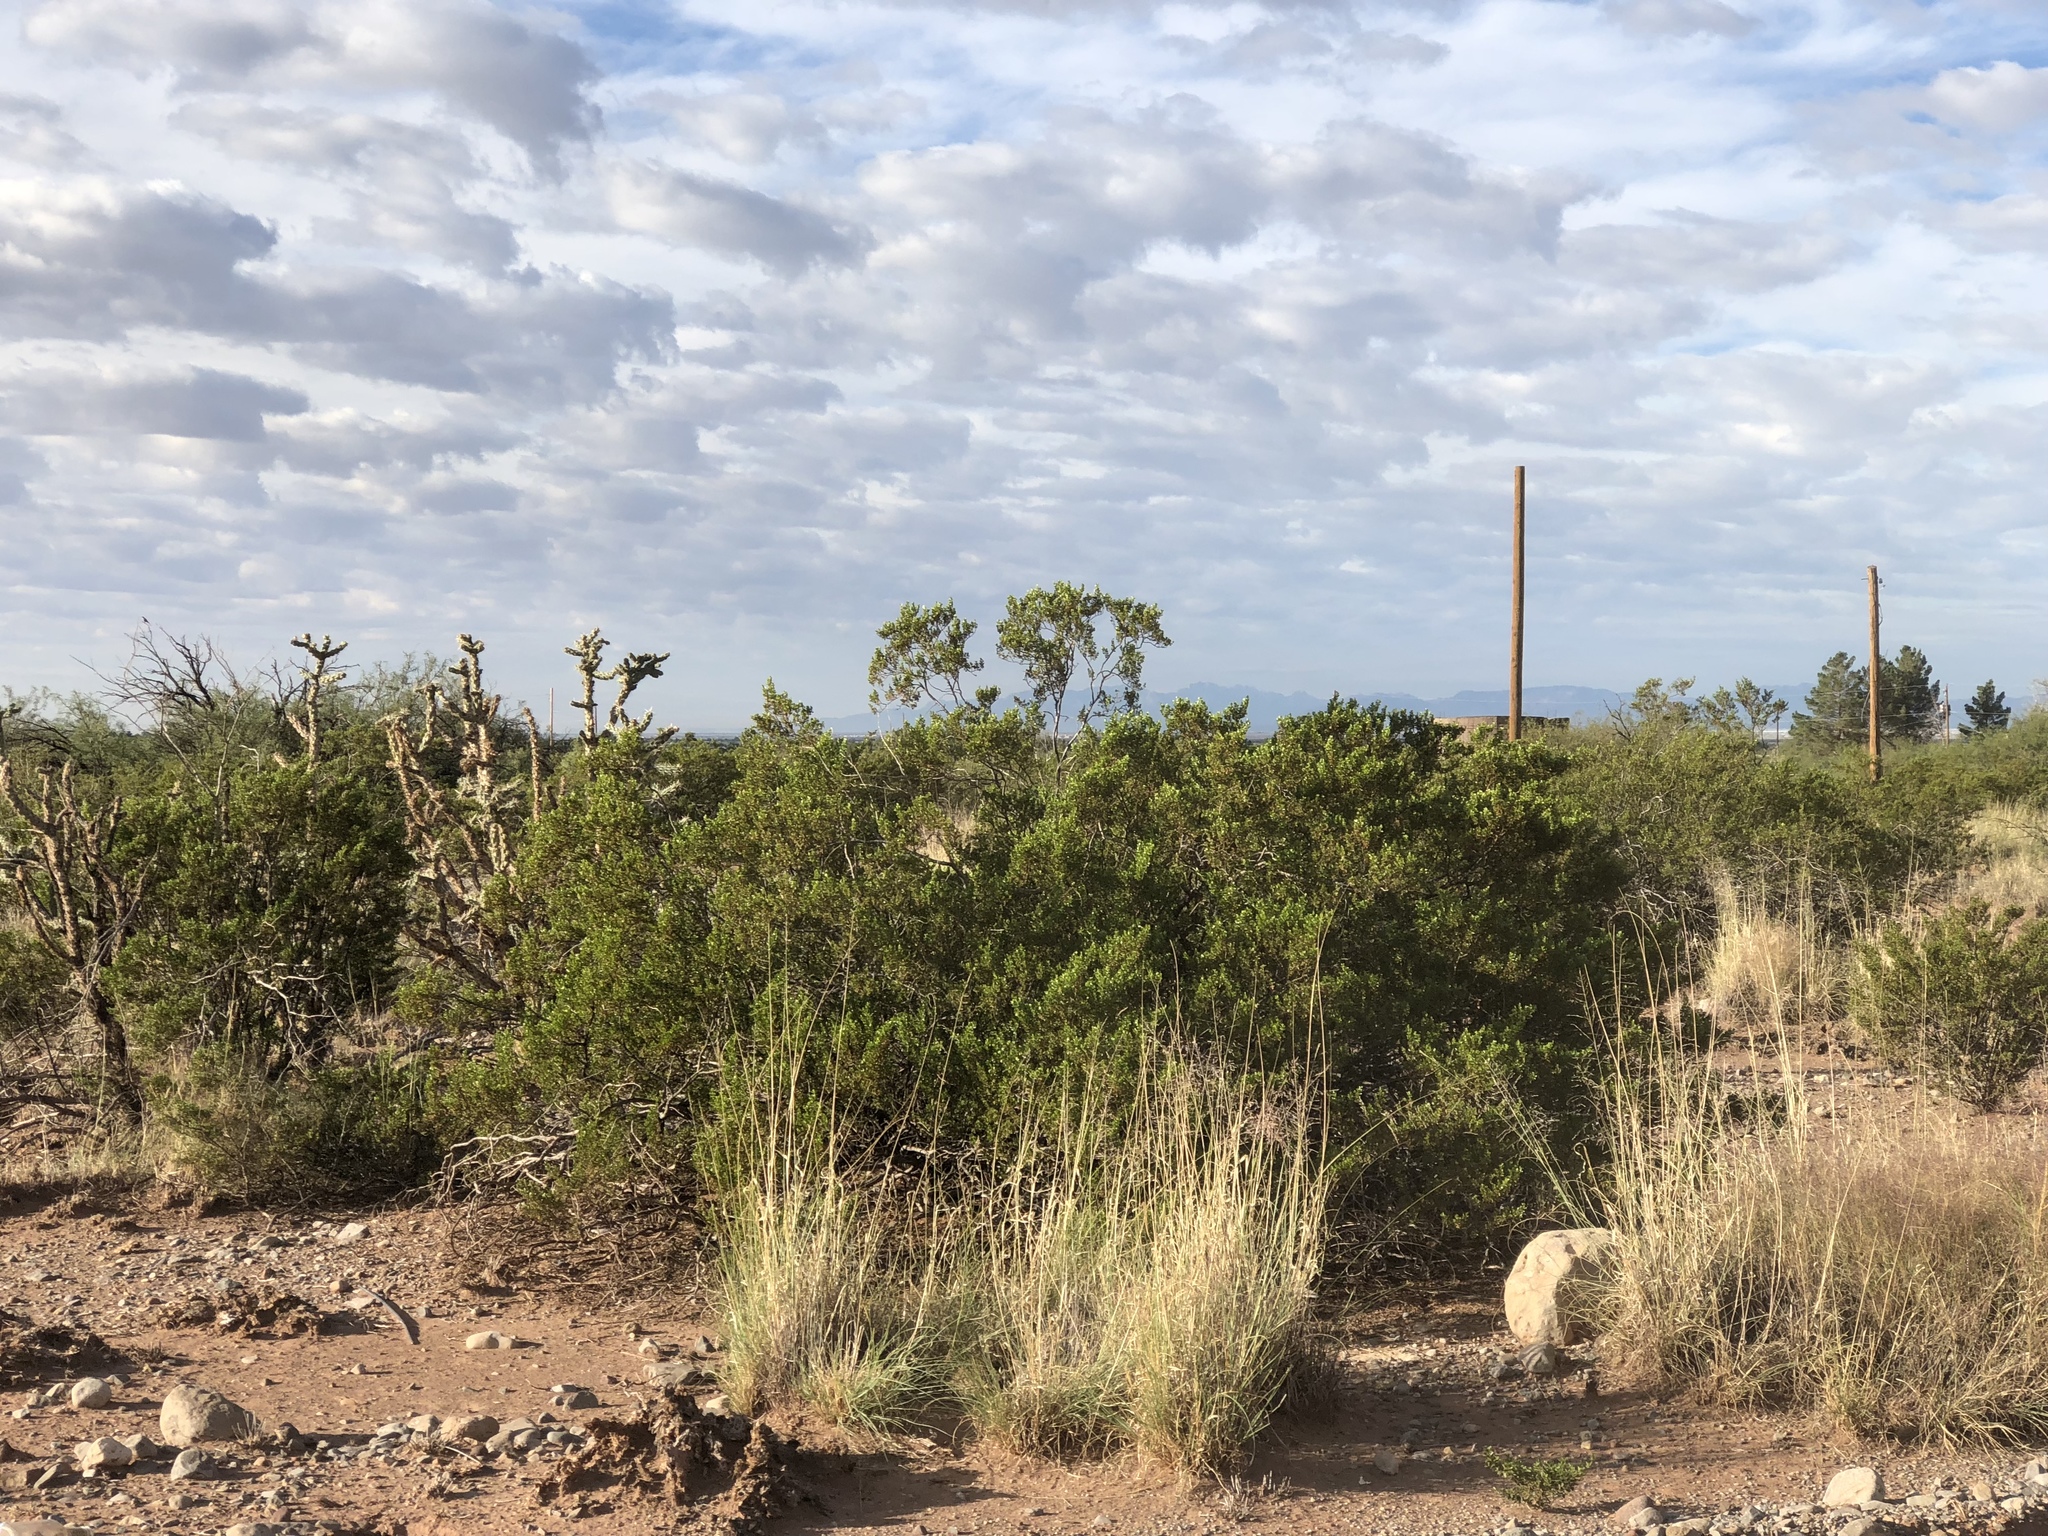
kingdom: Plantae
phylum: Tracheophyta
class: Magnoliopsida
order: Zygophyllales
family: Zygophyllaceae
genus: Larrea
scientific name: Larrea tridentata
